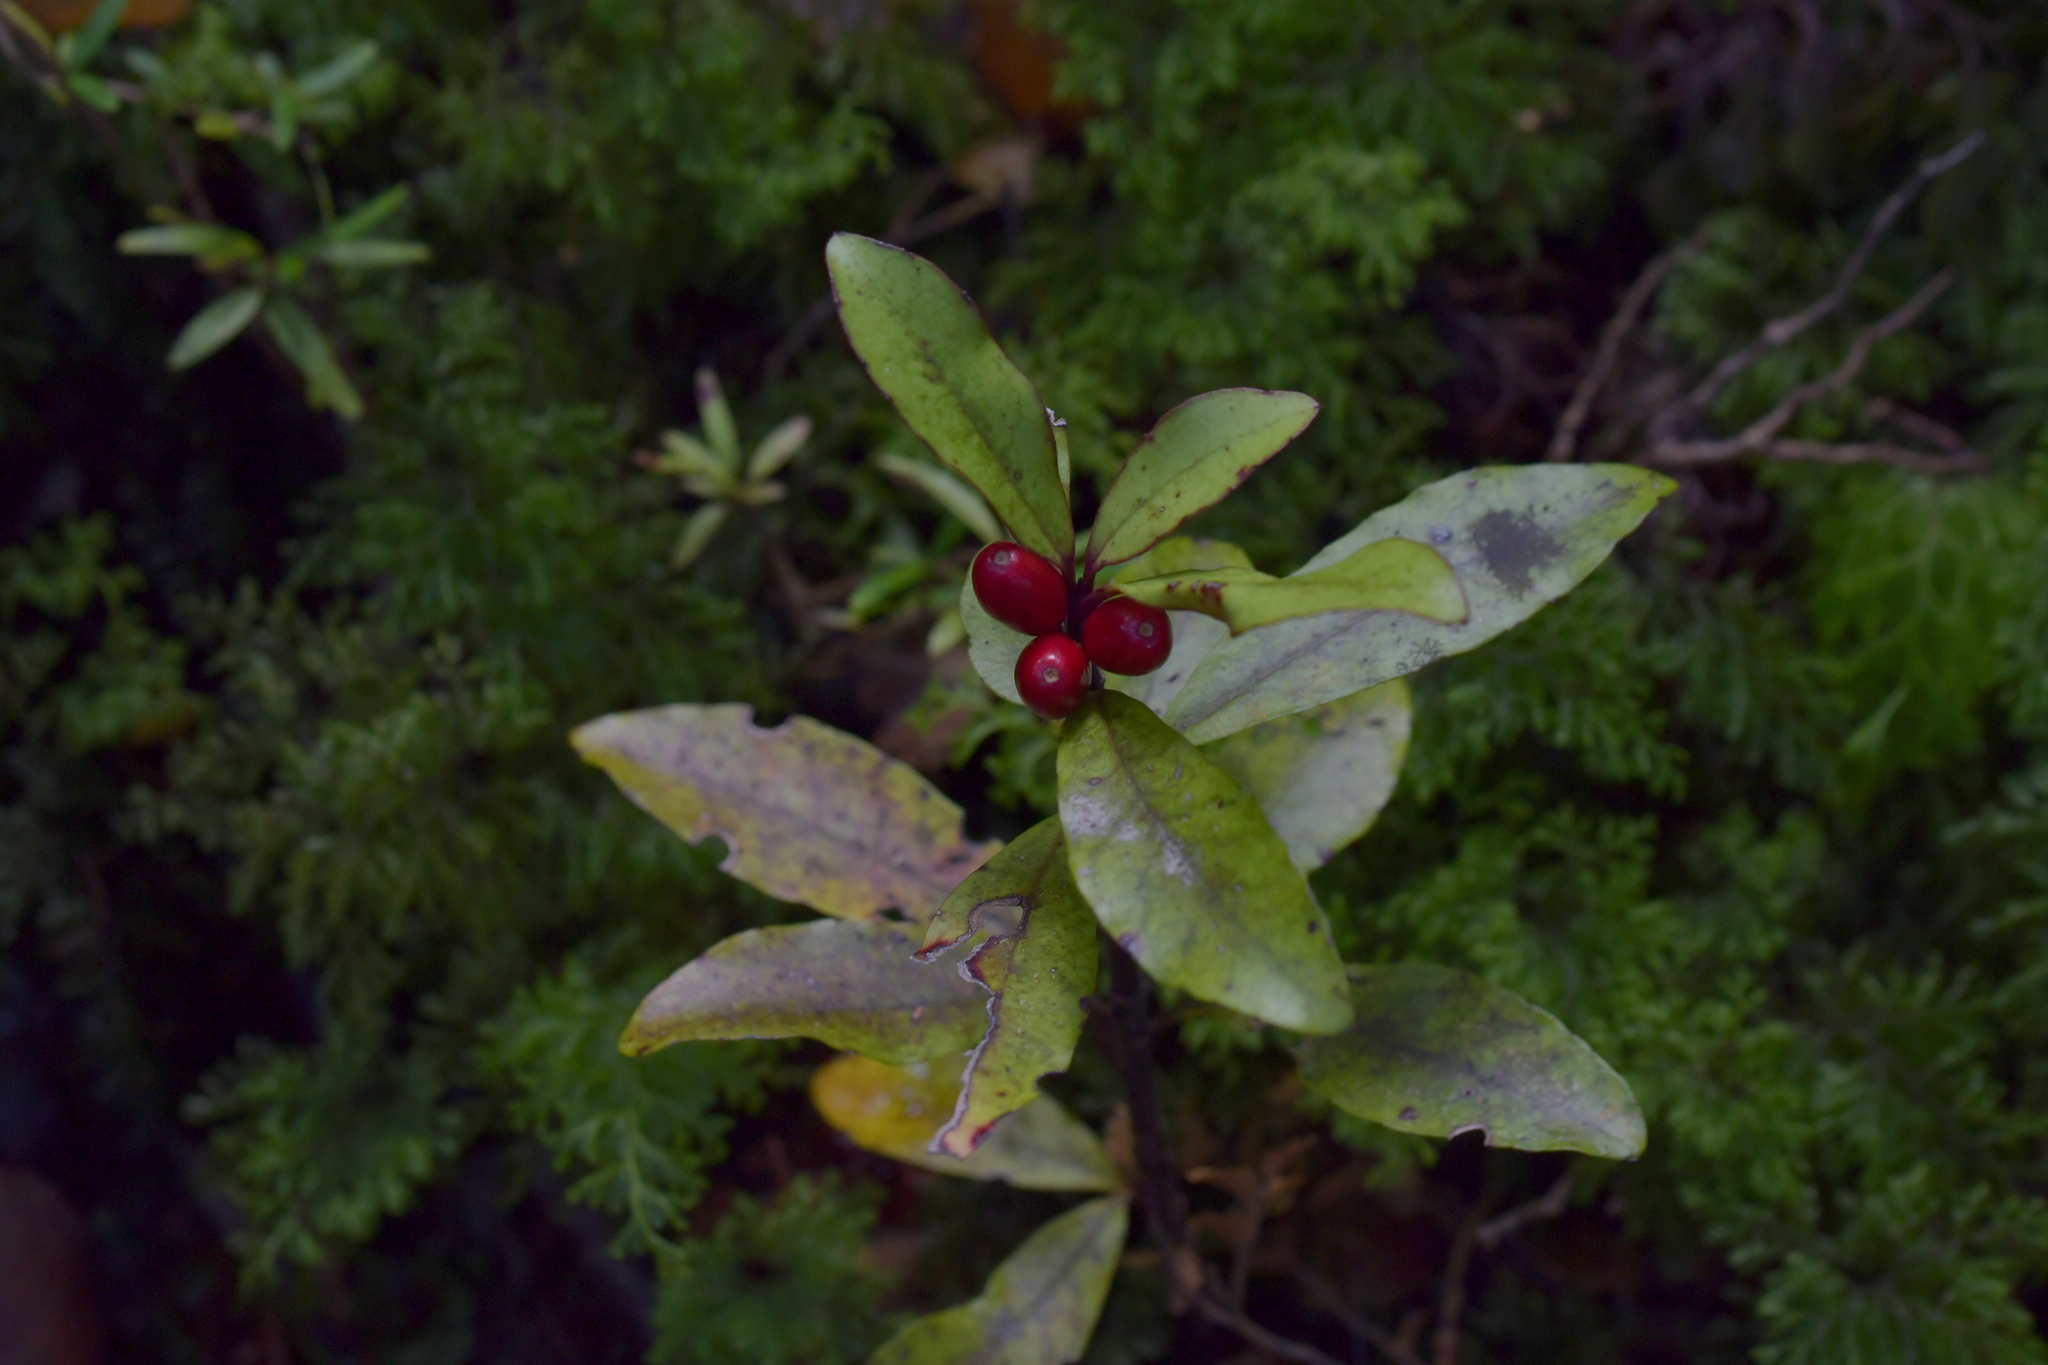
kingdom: Plantae
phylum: Tracheophyta
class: Magnoliopsida
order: Asterales
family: Alseuosmiaceae
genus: Alseuosmia
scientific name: Alseuosmia pusilla
